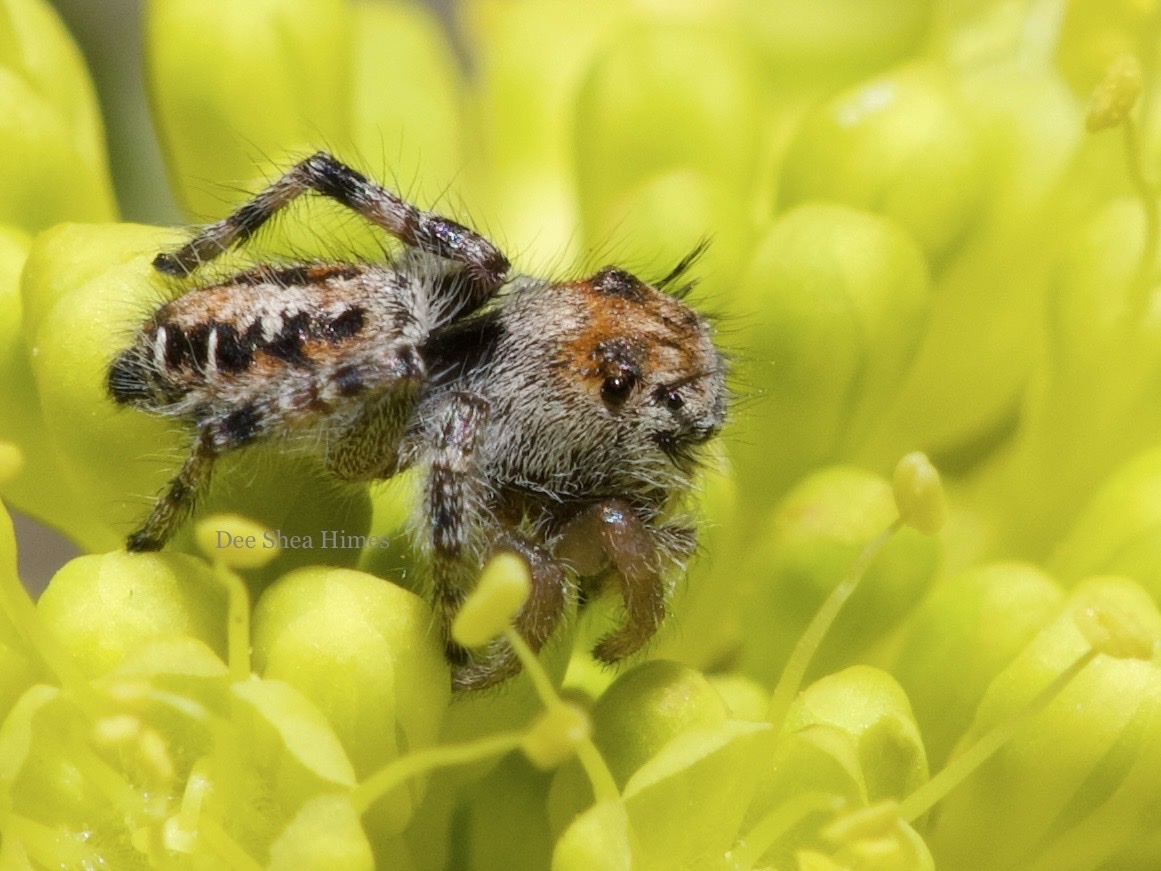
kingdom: Animalia
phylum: Arthropoda
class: Arachnida
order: Araneae
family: Salticidae
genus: Phidippus
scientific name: Phidippus comatus
